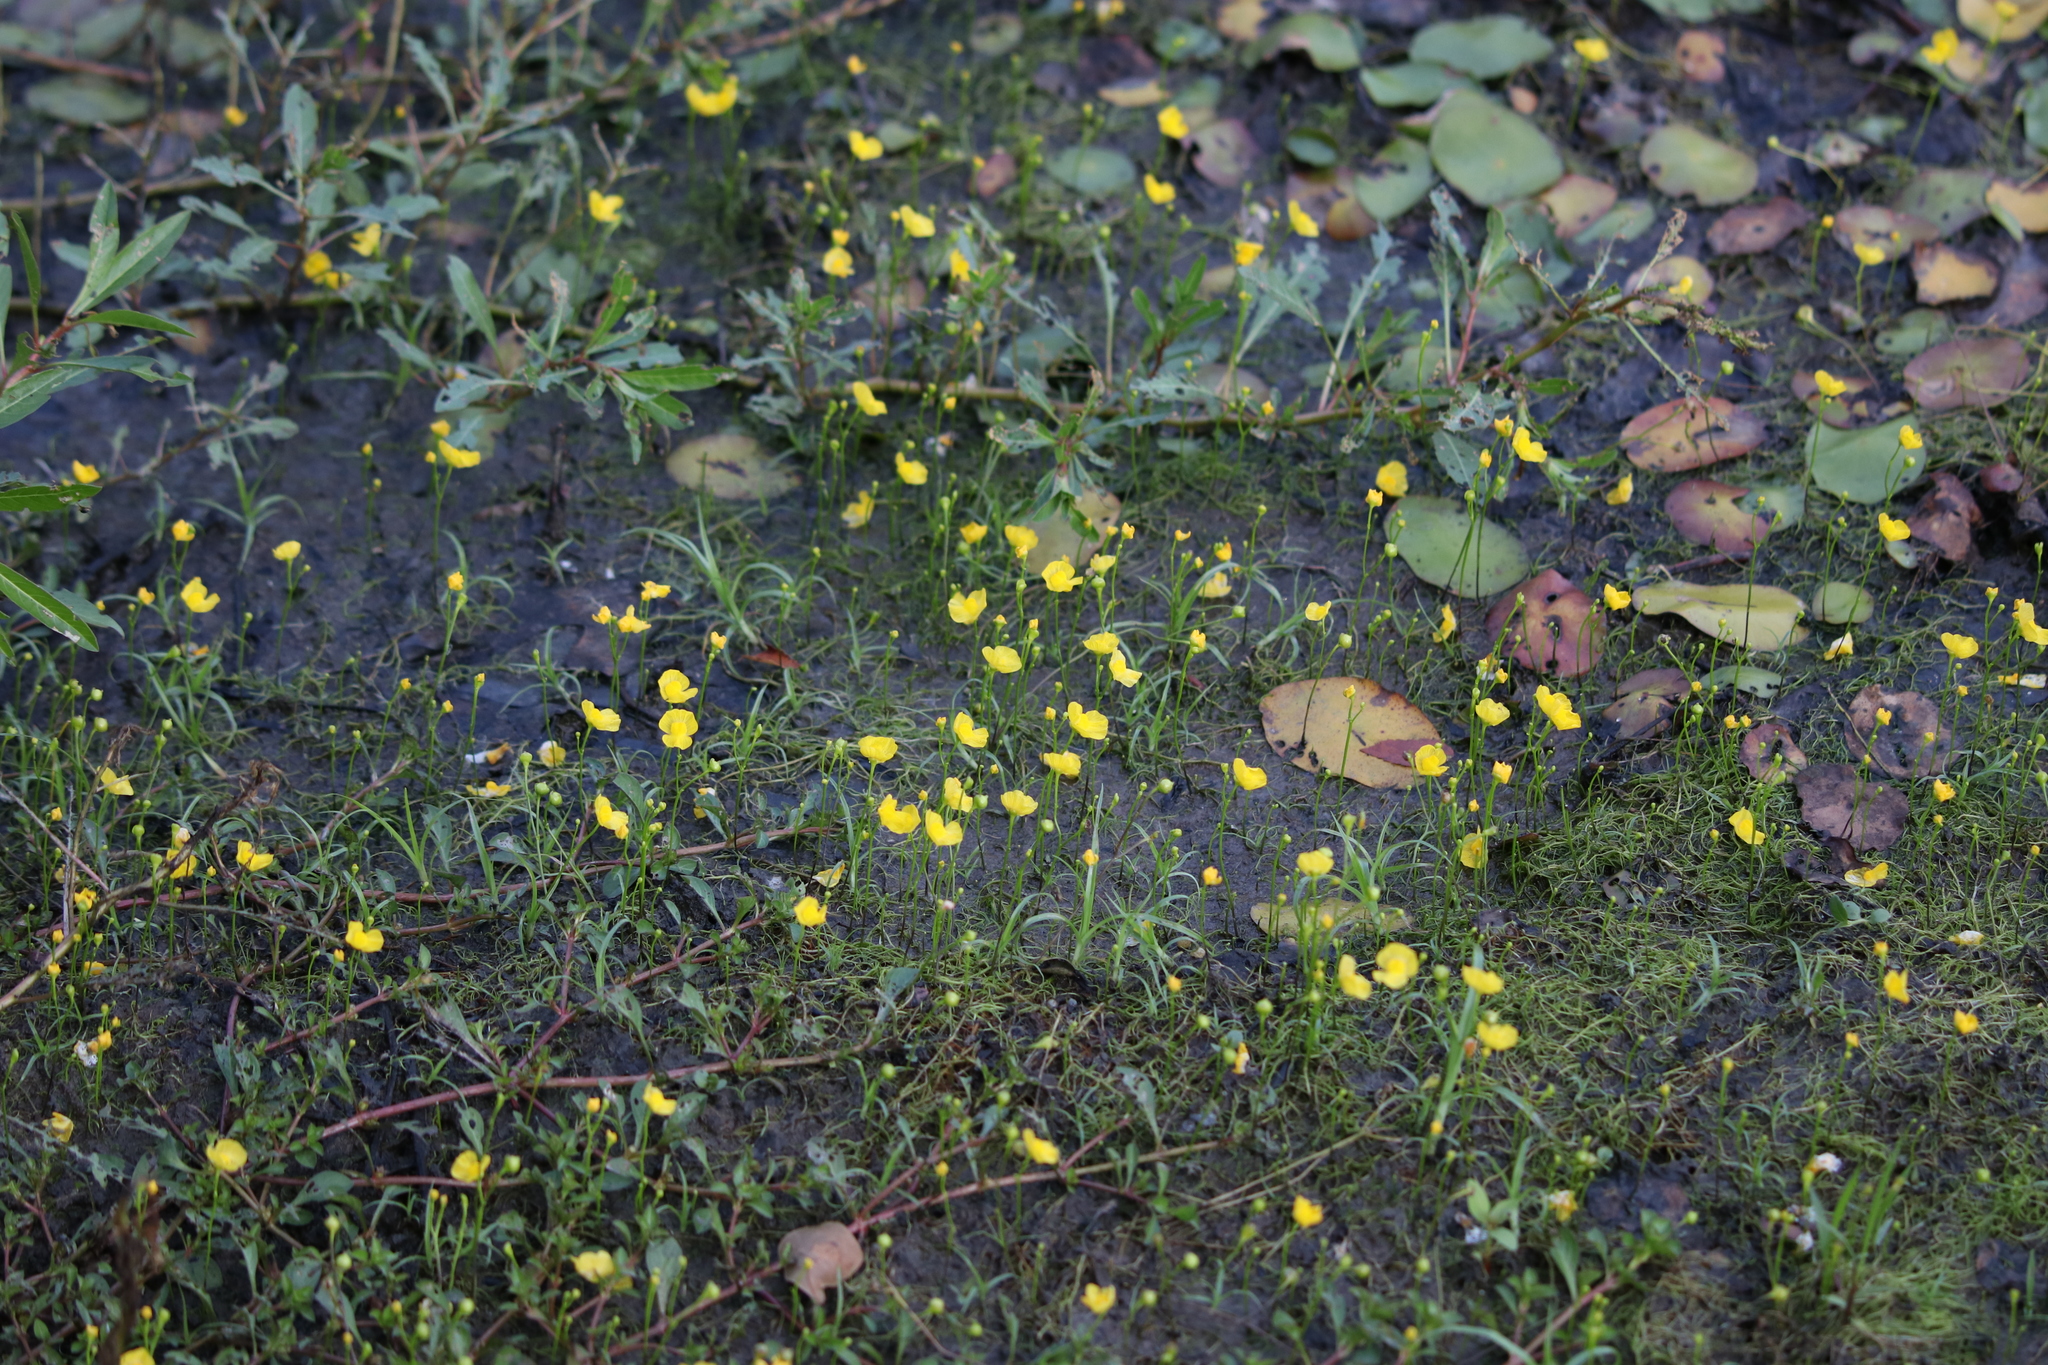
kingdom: Plantae
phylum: Tracheophyta
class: Magnoliopsida
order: Lamiales
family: Lentibulariaceae
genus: Utricularia
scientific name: Utricularia gibba
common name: Humped bladderwort
